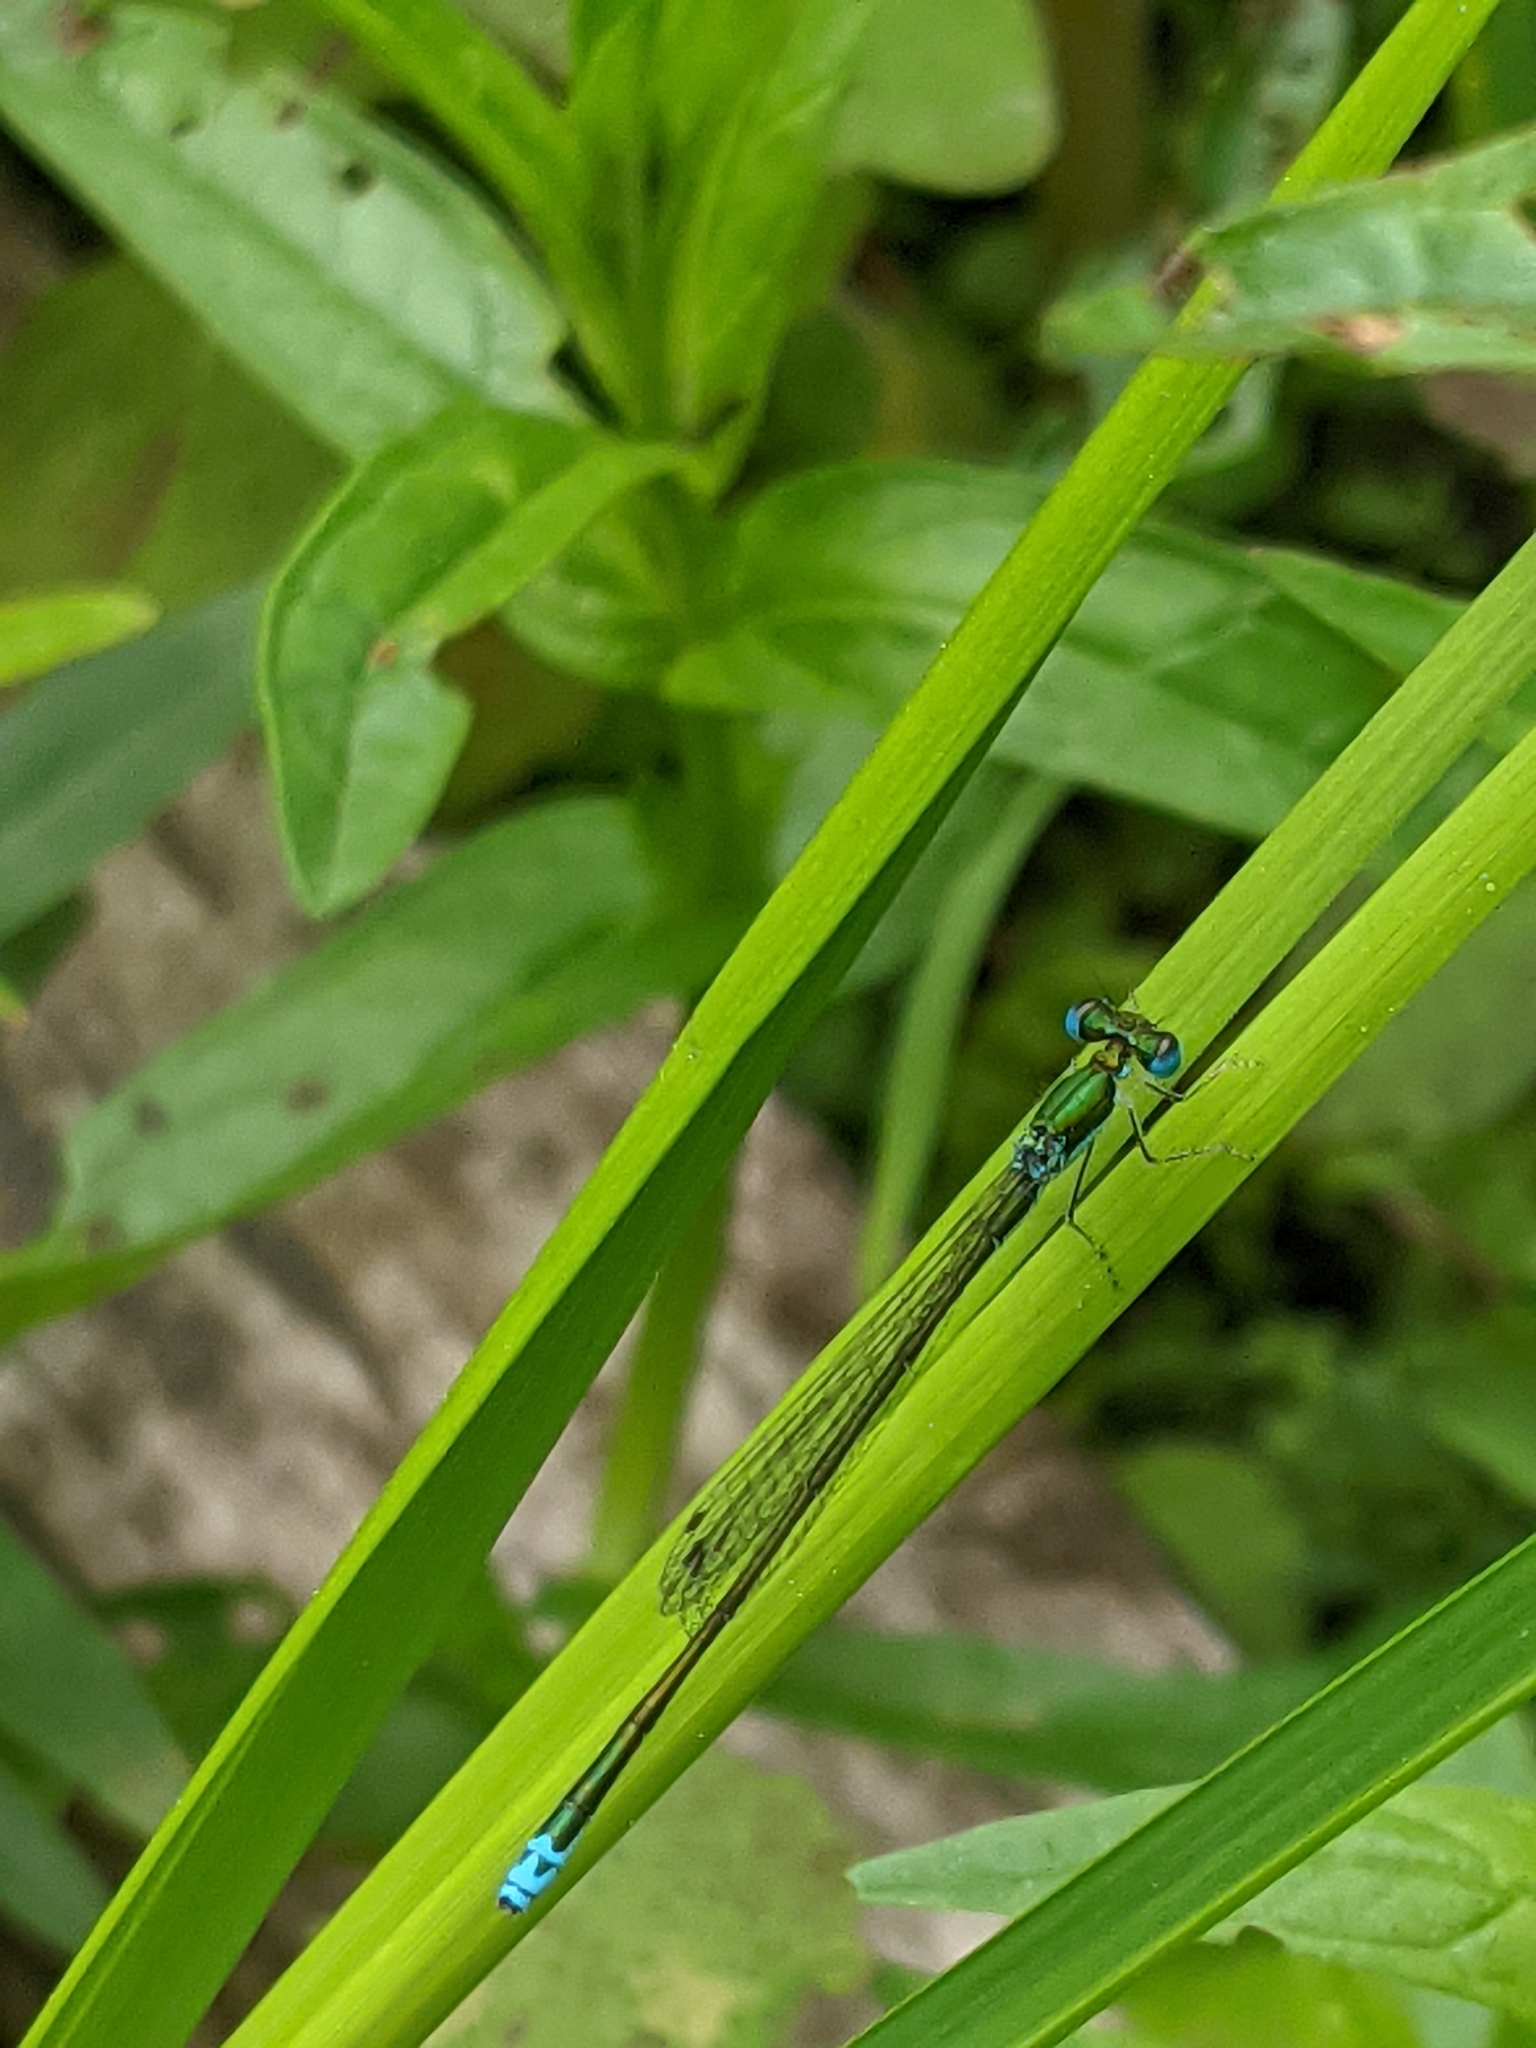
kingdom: Animalia
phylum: Arthropoda
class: Insecta
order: Odonata
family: Coenagrionidae
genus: Nehalennia
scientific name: Nehalennia irene
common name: Sedge sprite
